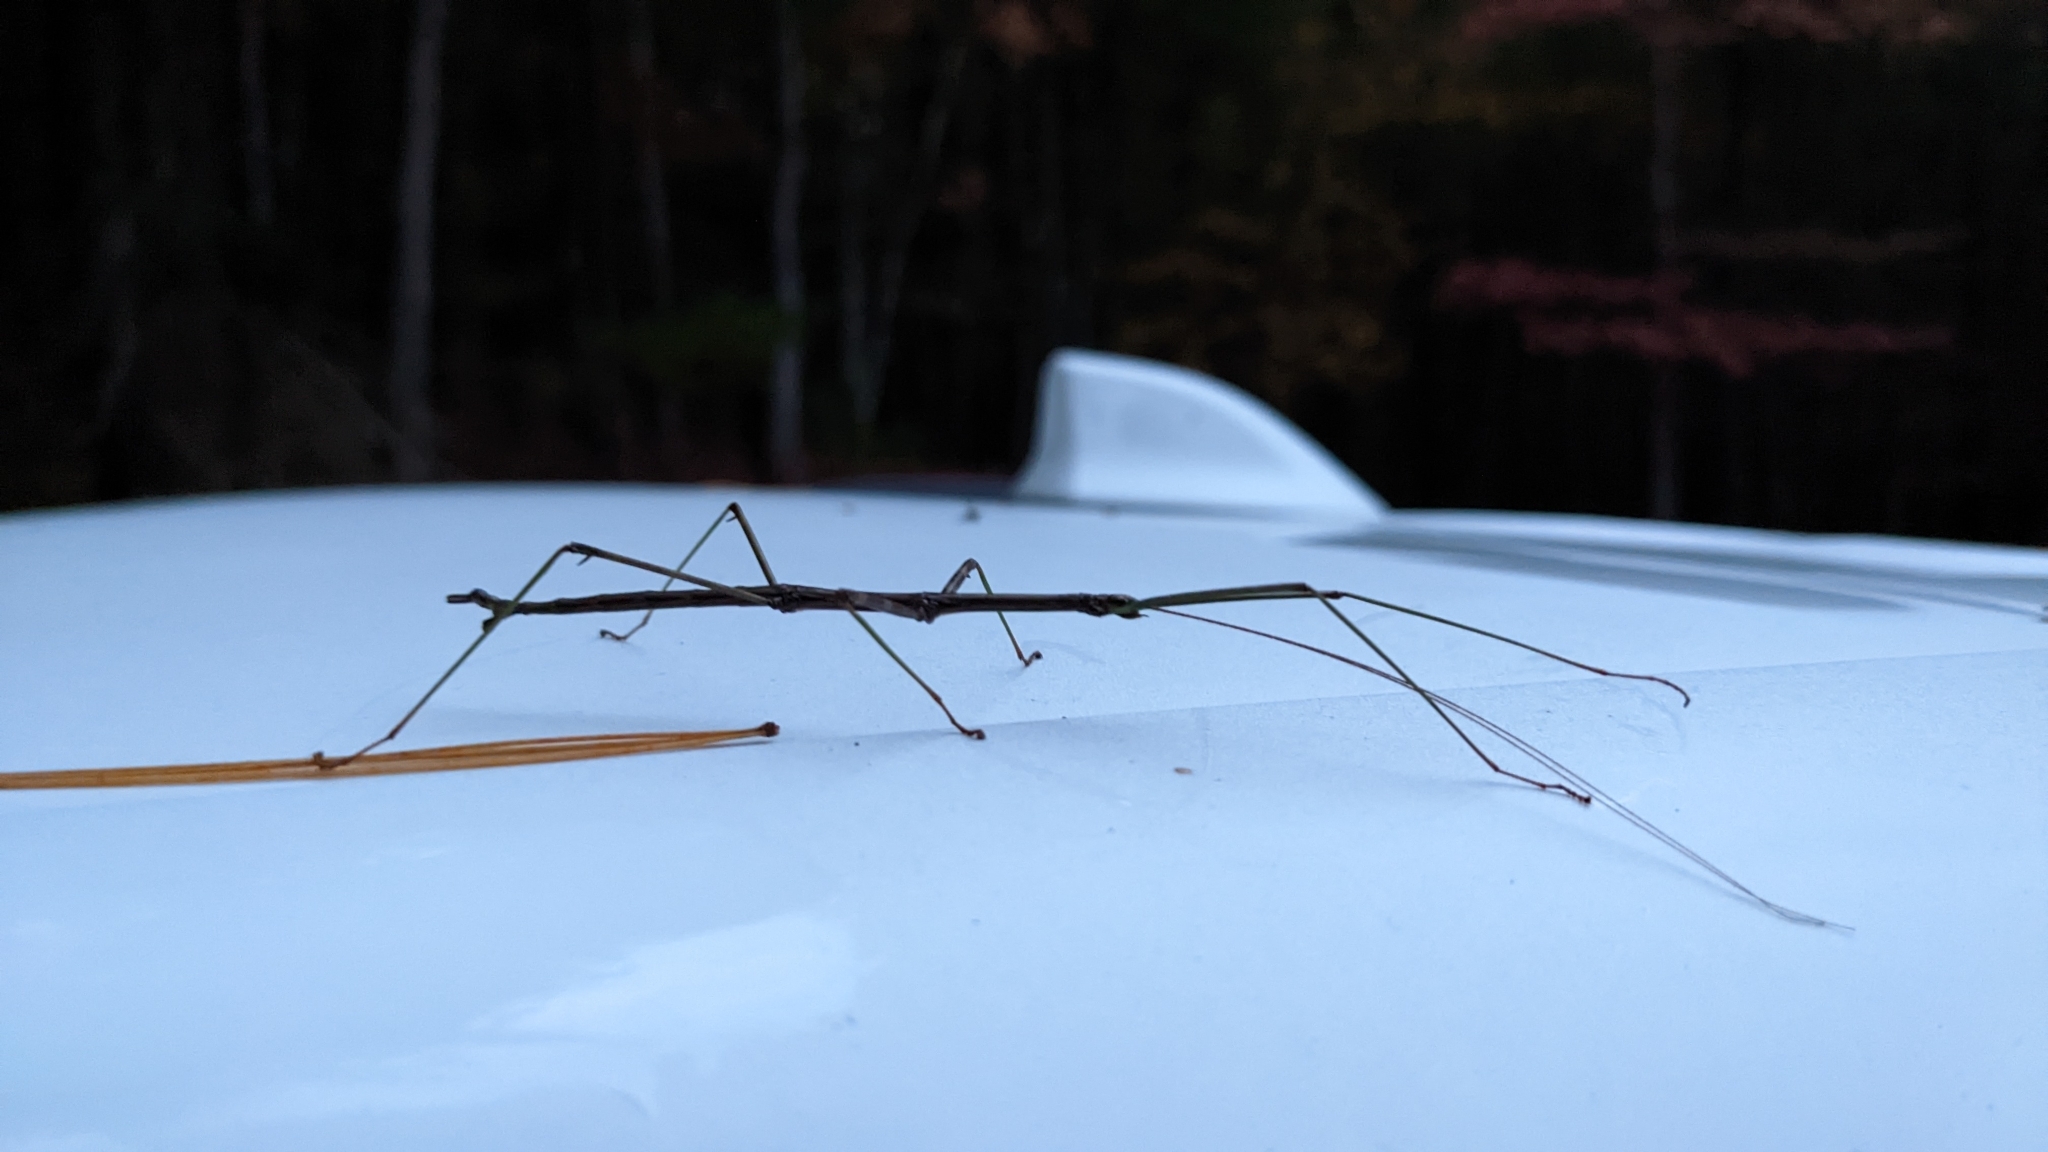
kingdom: Animalia
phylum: Arthropoda
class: Insecta
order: Phasmida
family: Diapheromeridae
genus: Diapheromera
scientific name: Diapheromera femorata
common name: Common american walkingstick
